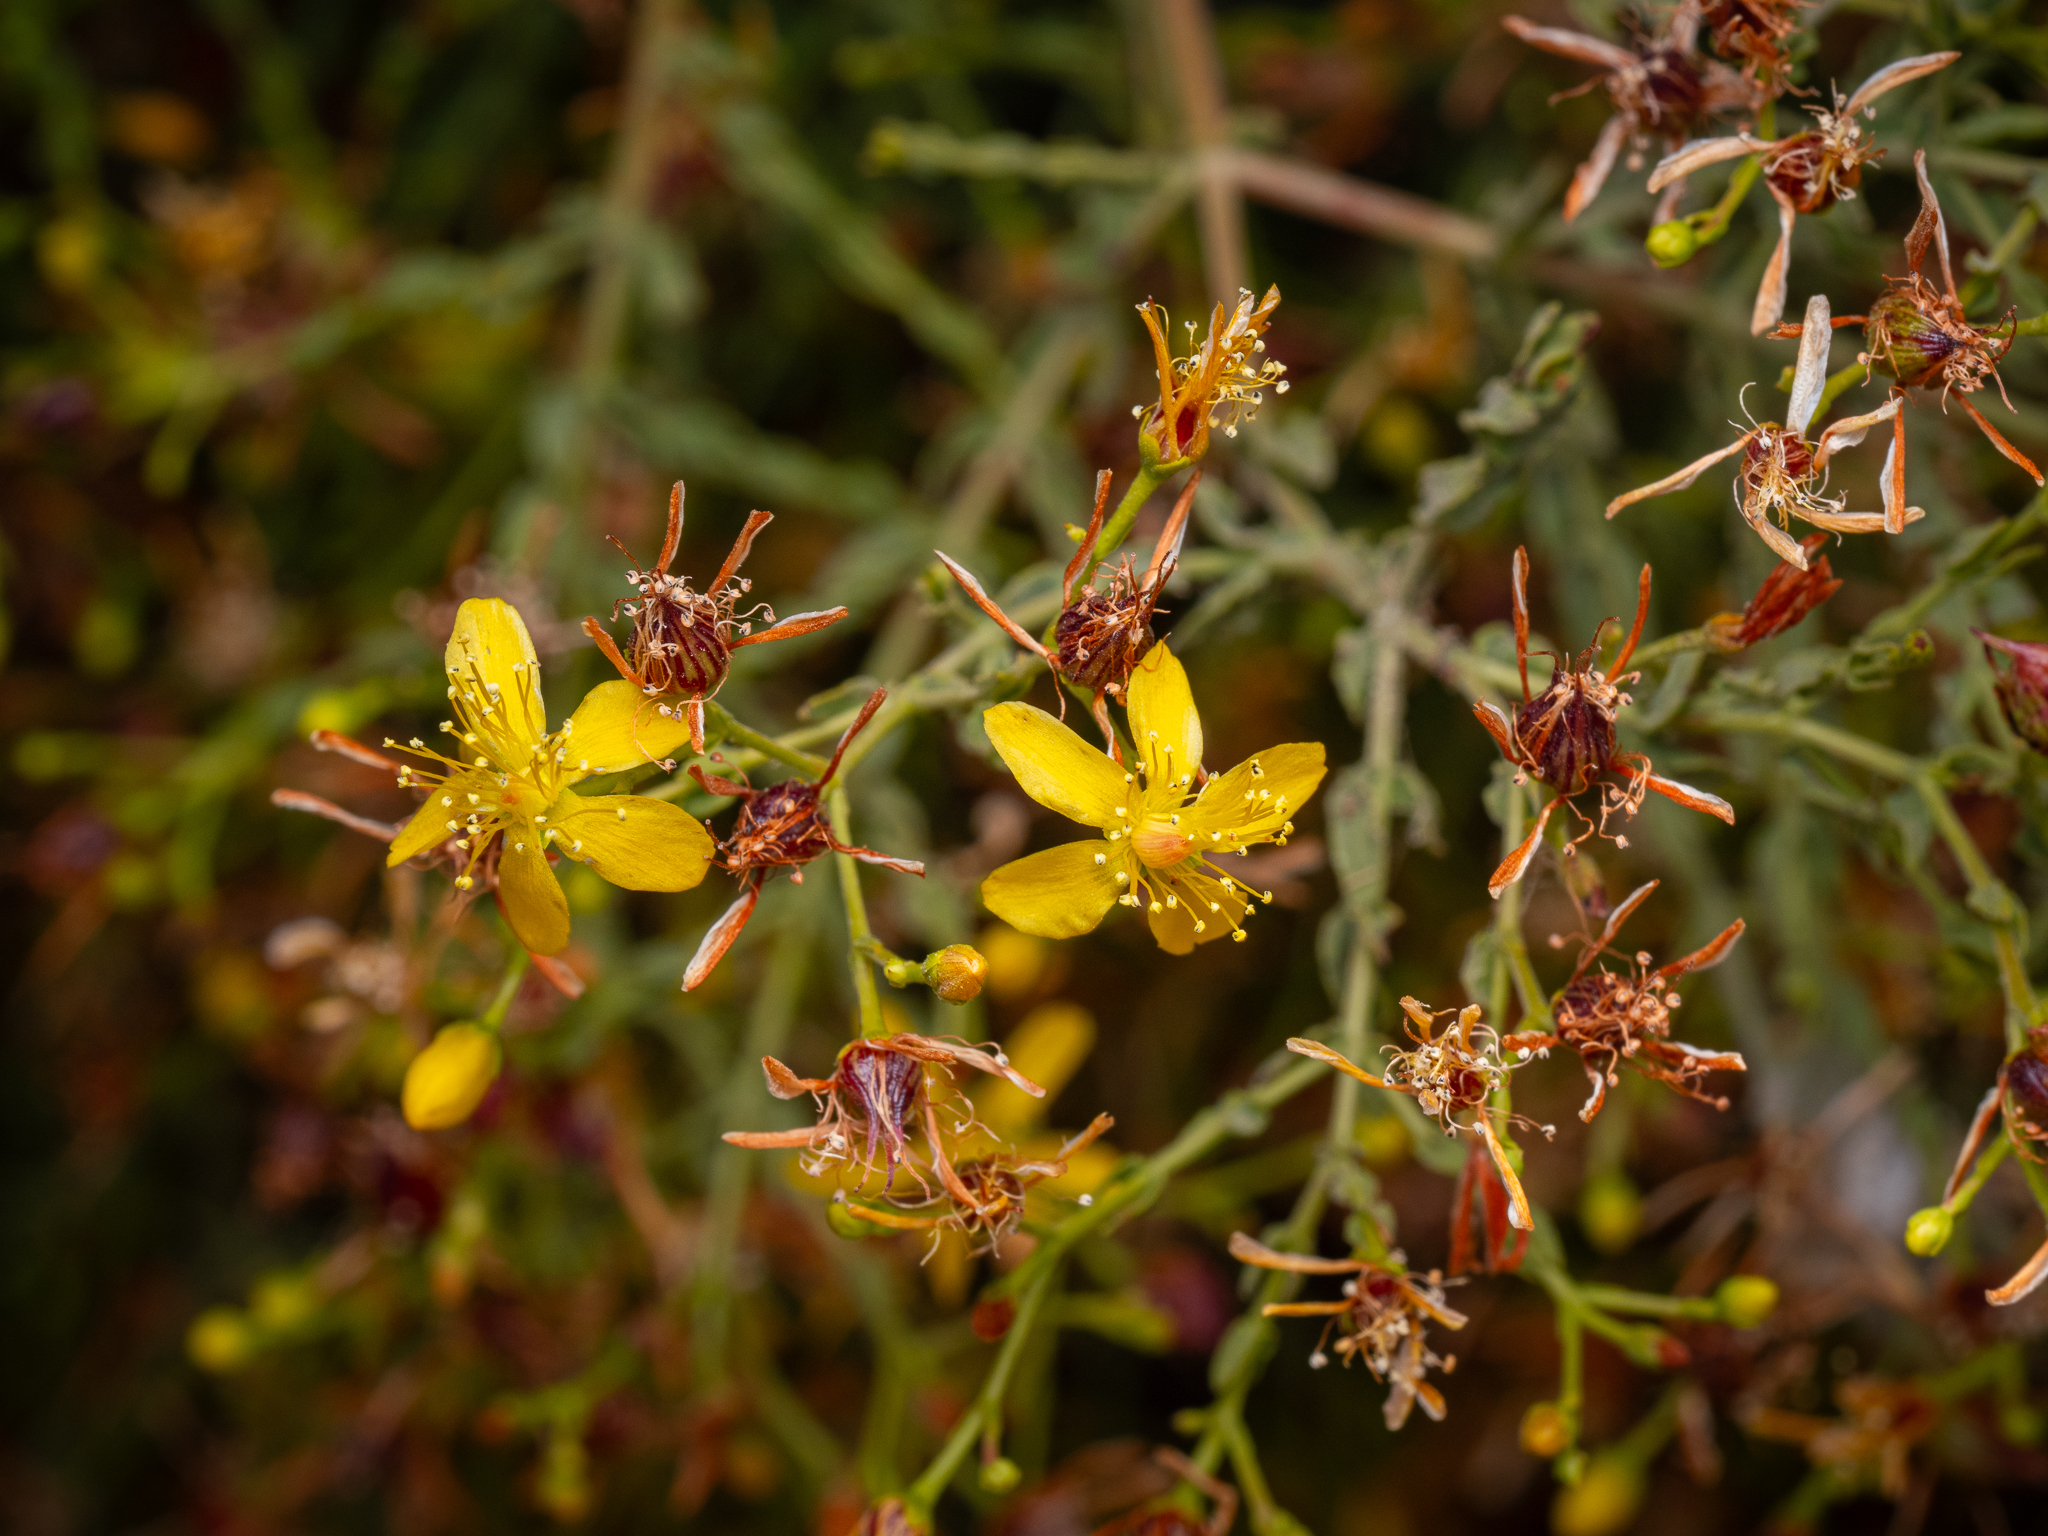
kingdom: Plantae
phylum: Tracheophyta
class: Magnoliopsida
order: Malpighiales
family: Hypericaceae
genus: Hypericum
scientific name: Hypericum triquetrifolium
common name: Tangled hypericum
